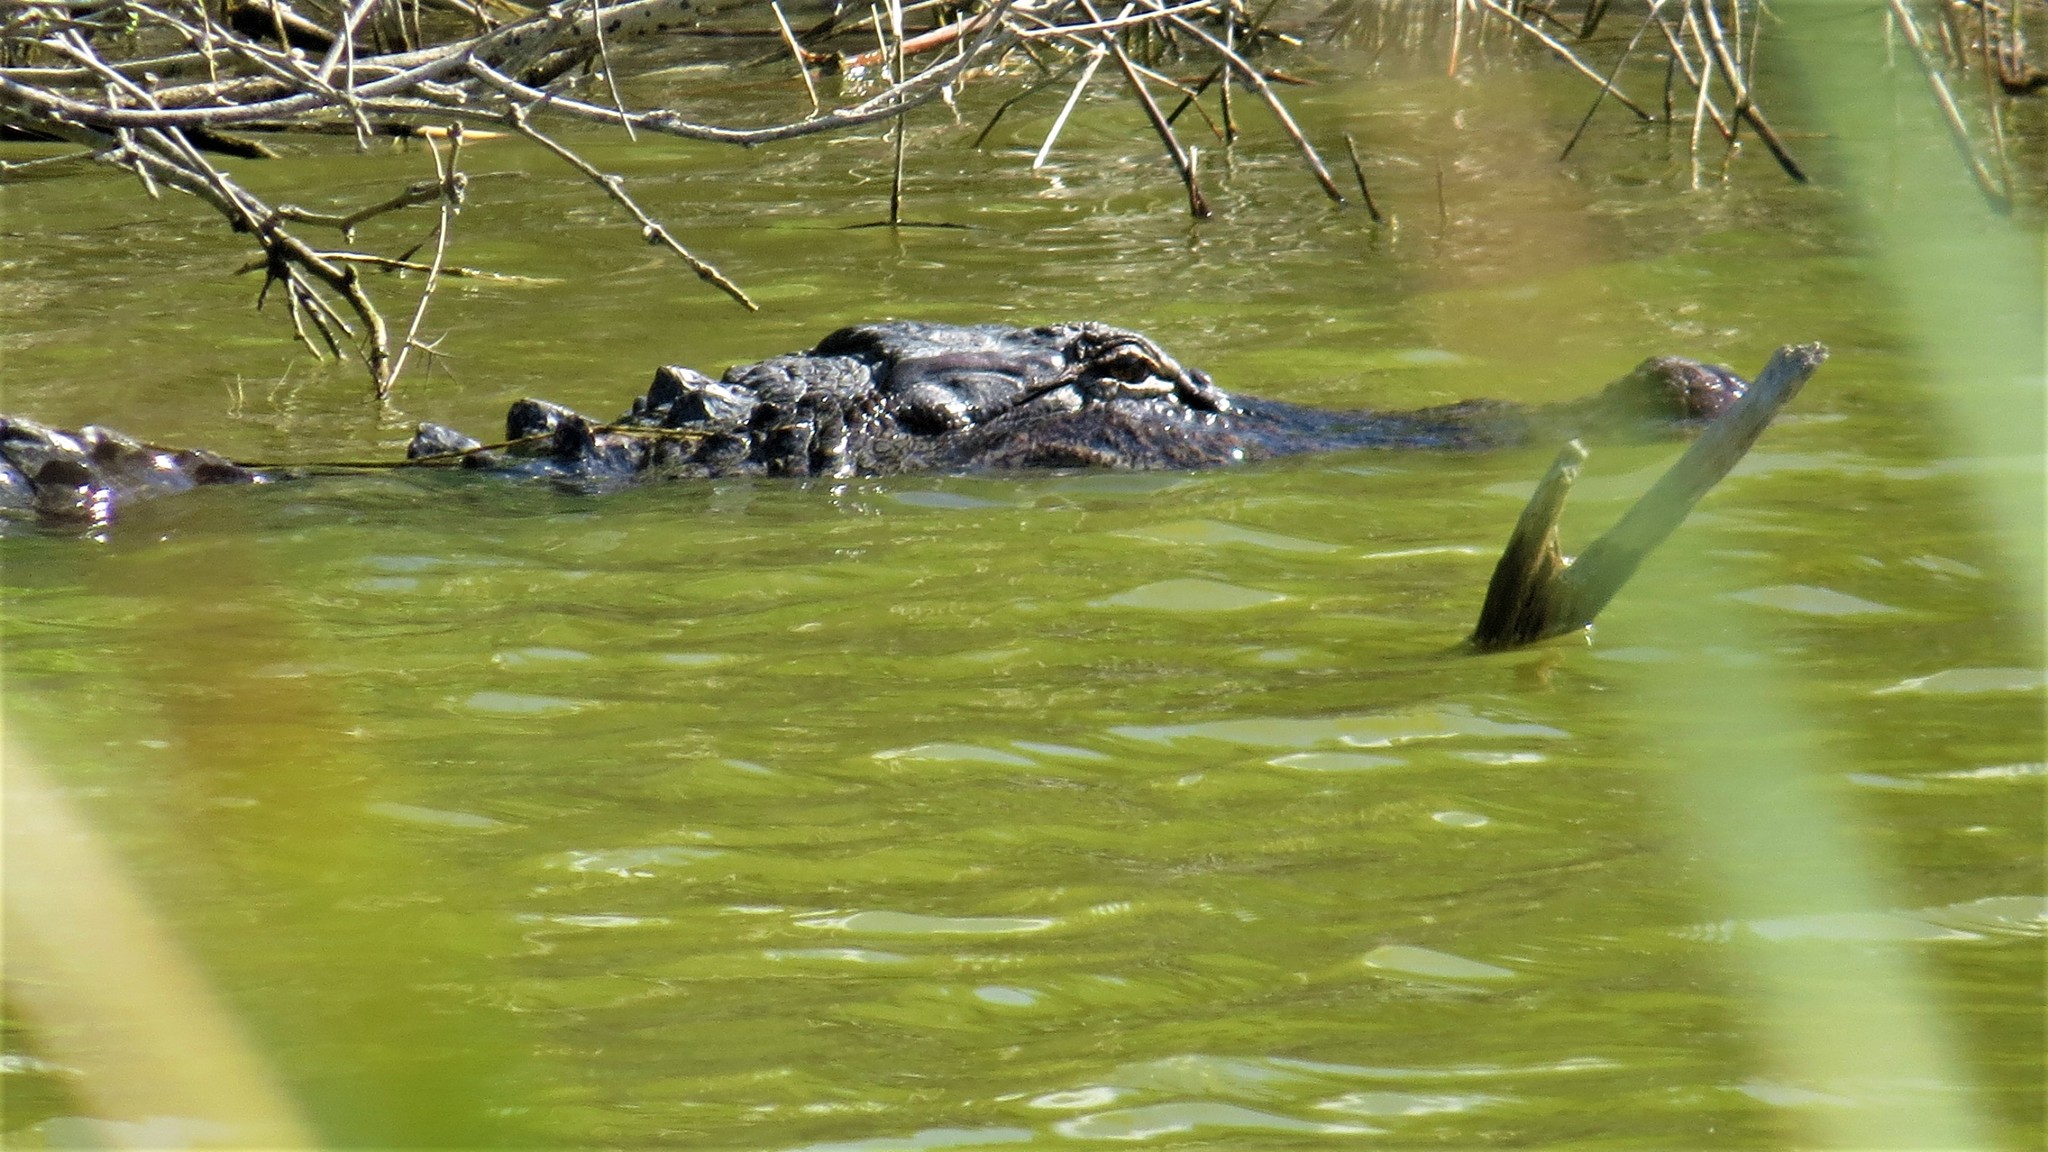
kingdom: Animalia
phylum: Chordata
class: Crocodylia
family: Alligatoridae
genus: Alligator
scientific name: Alligator mississippiensis
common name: American alligator
